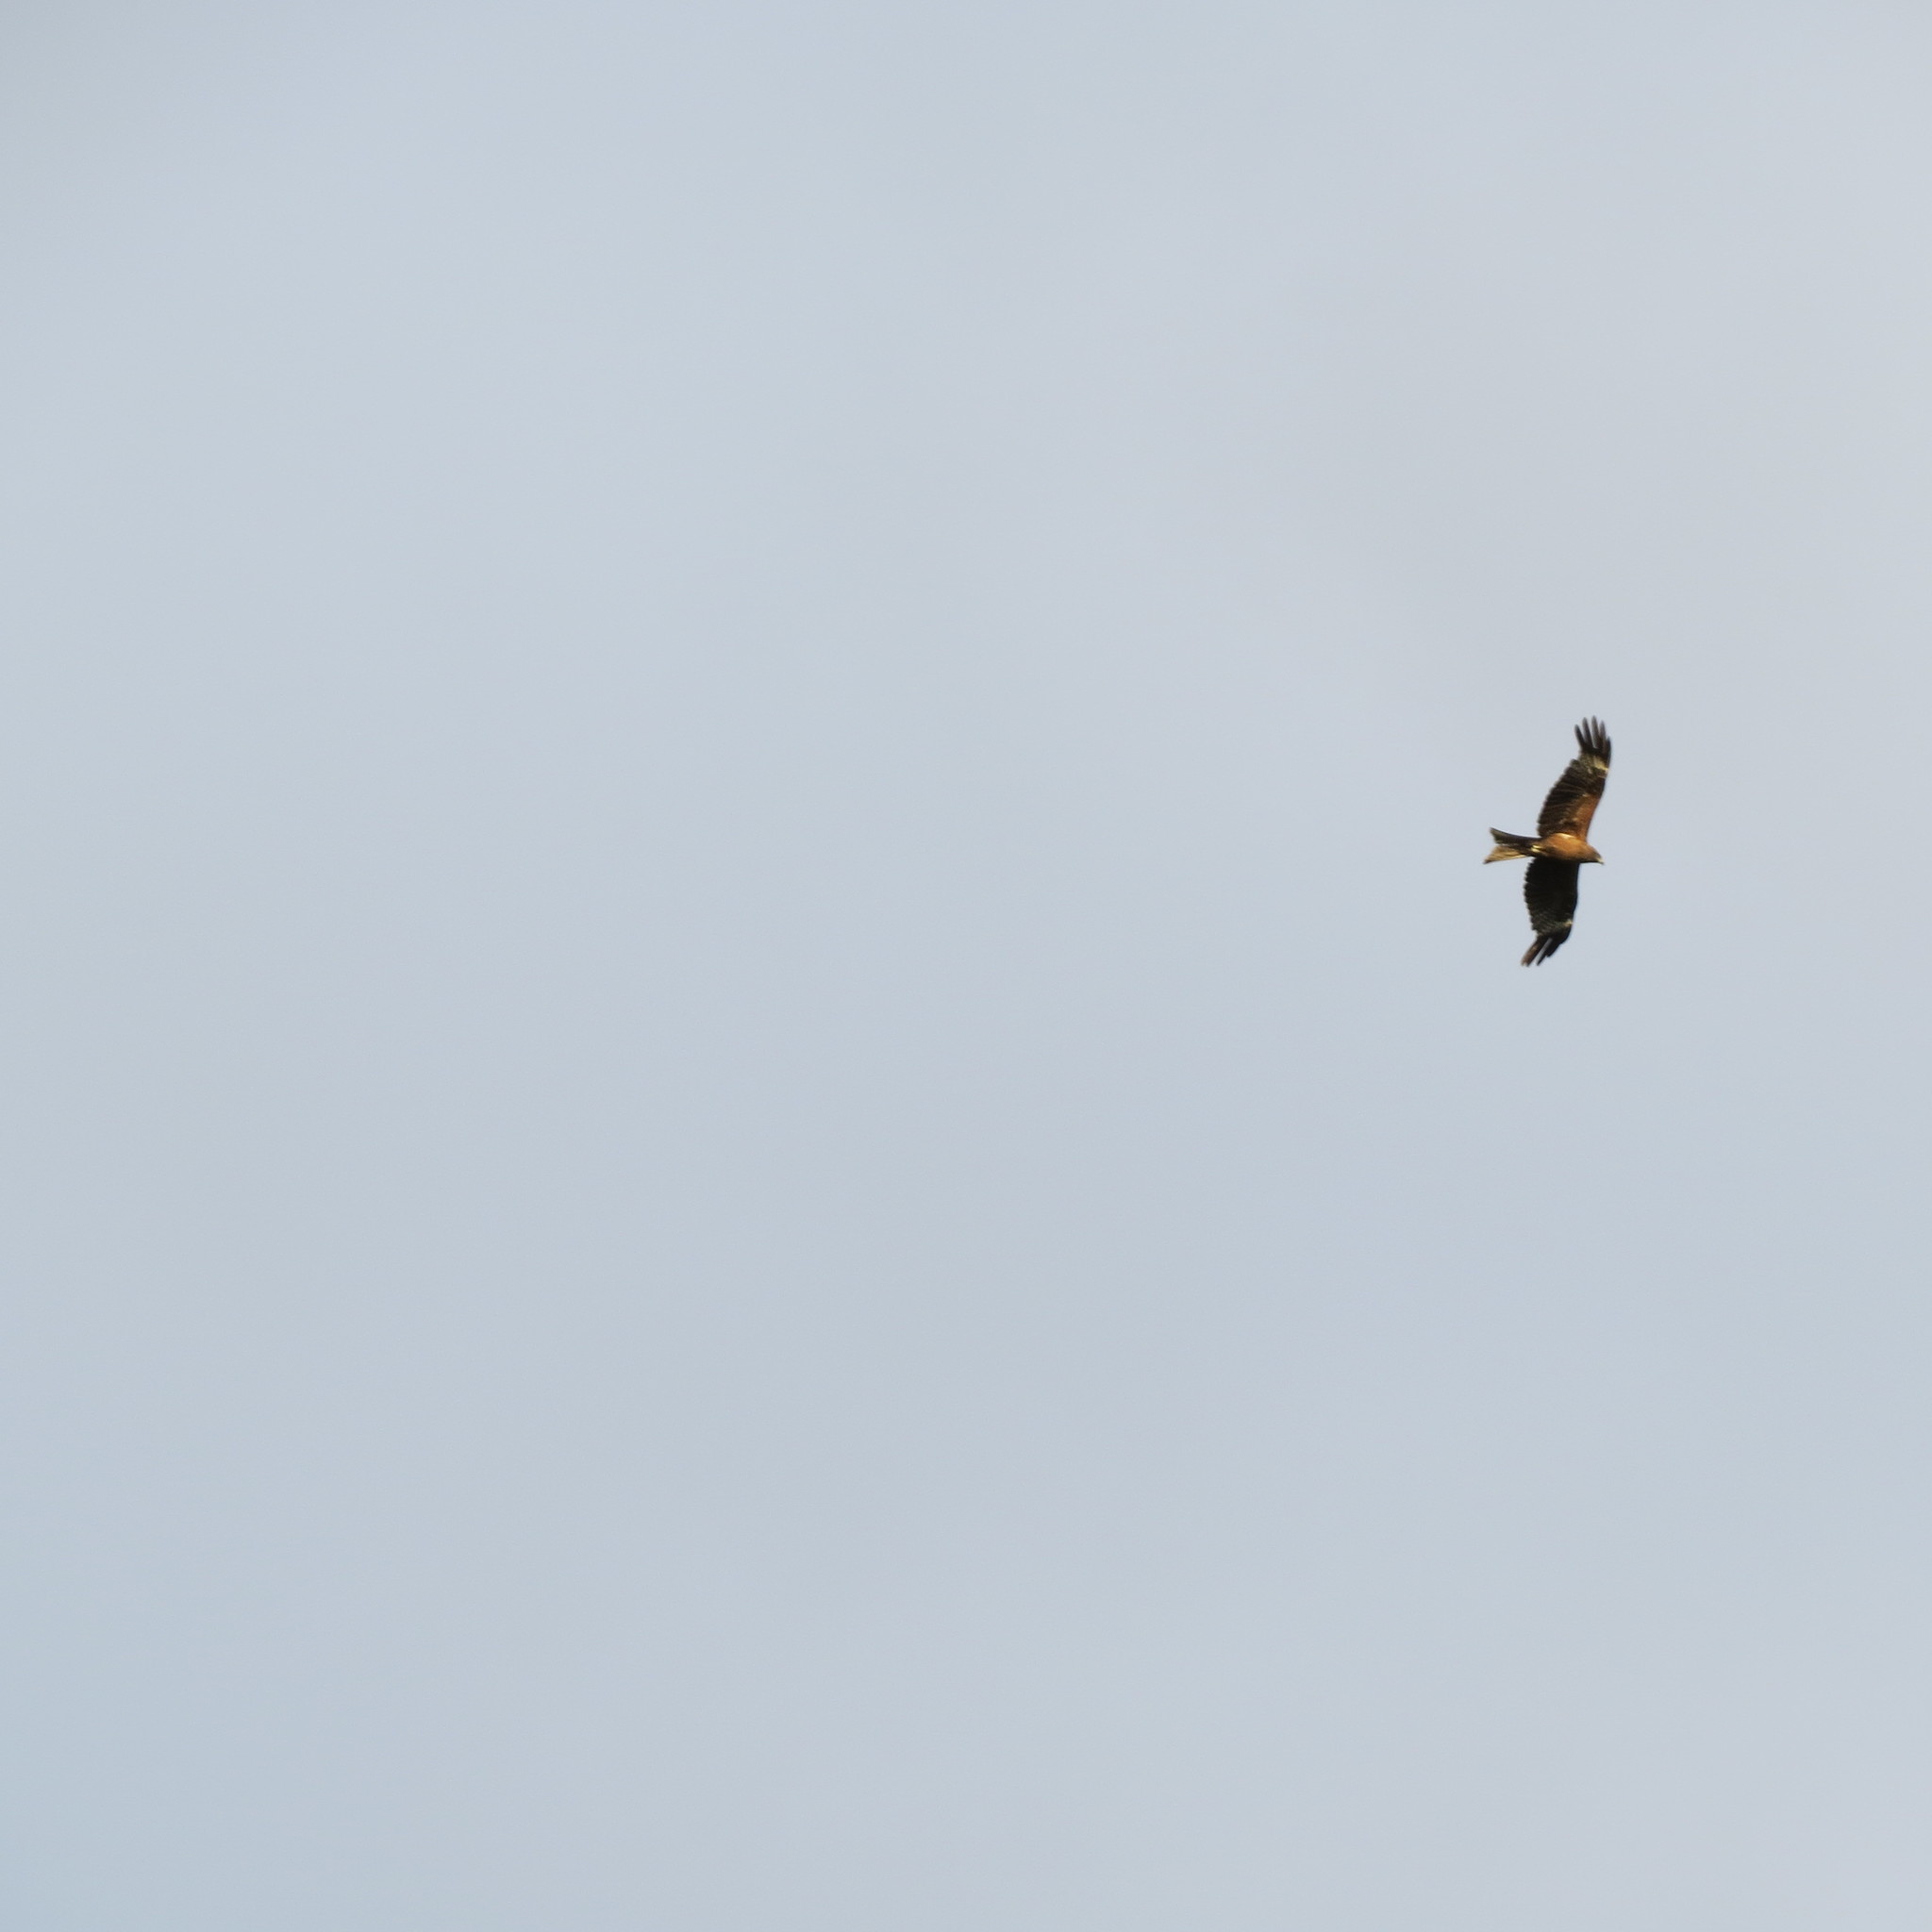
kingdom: Animalia
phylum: Chordata
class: Aves
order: Accipitriformes
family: Accipitridae
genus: Milvus
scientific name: Milvus migrans
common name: Black kite
